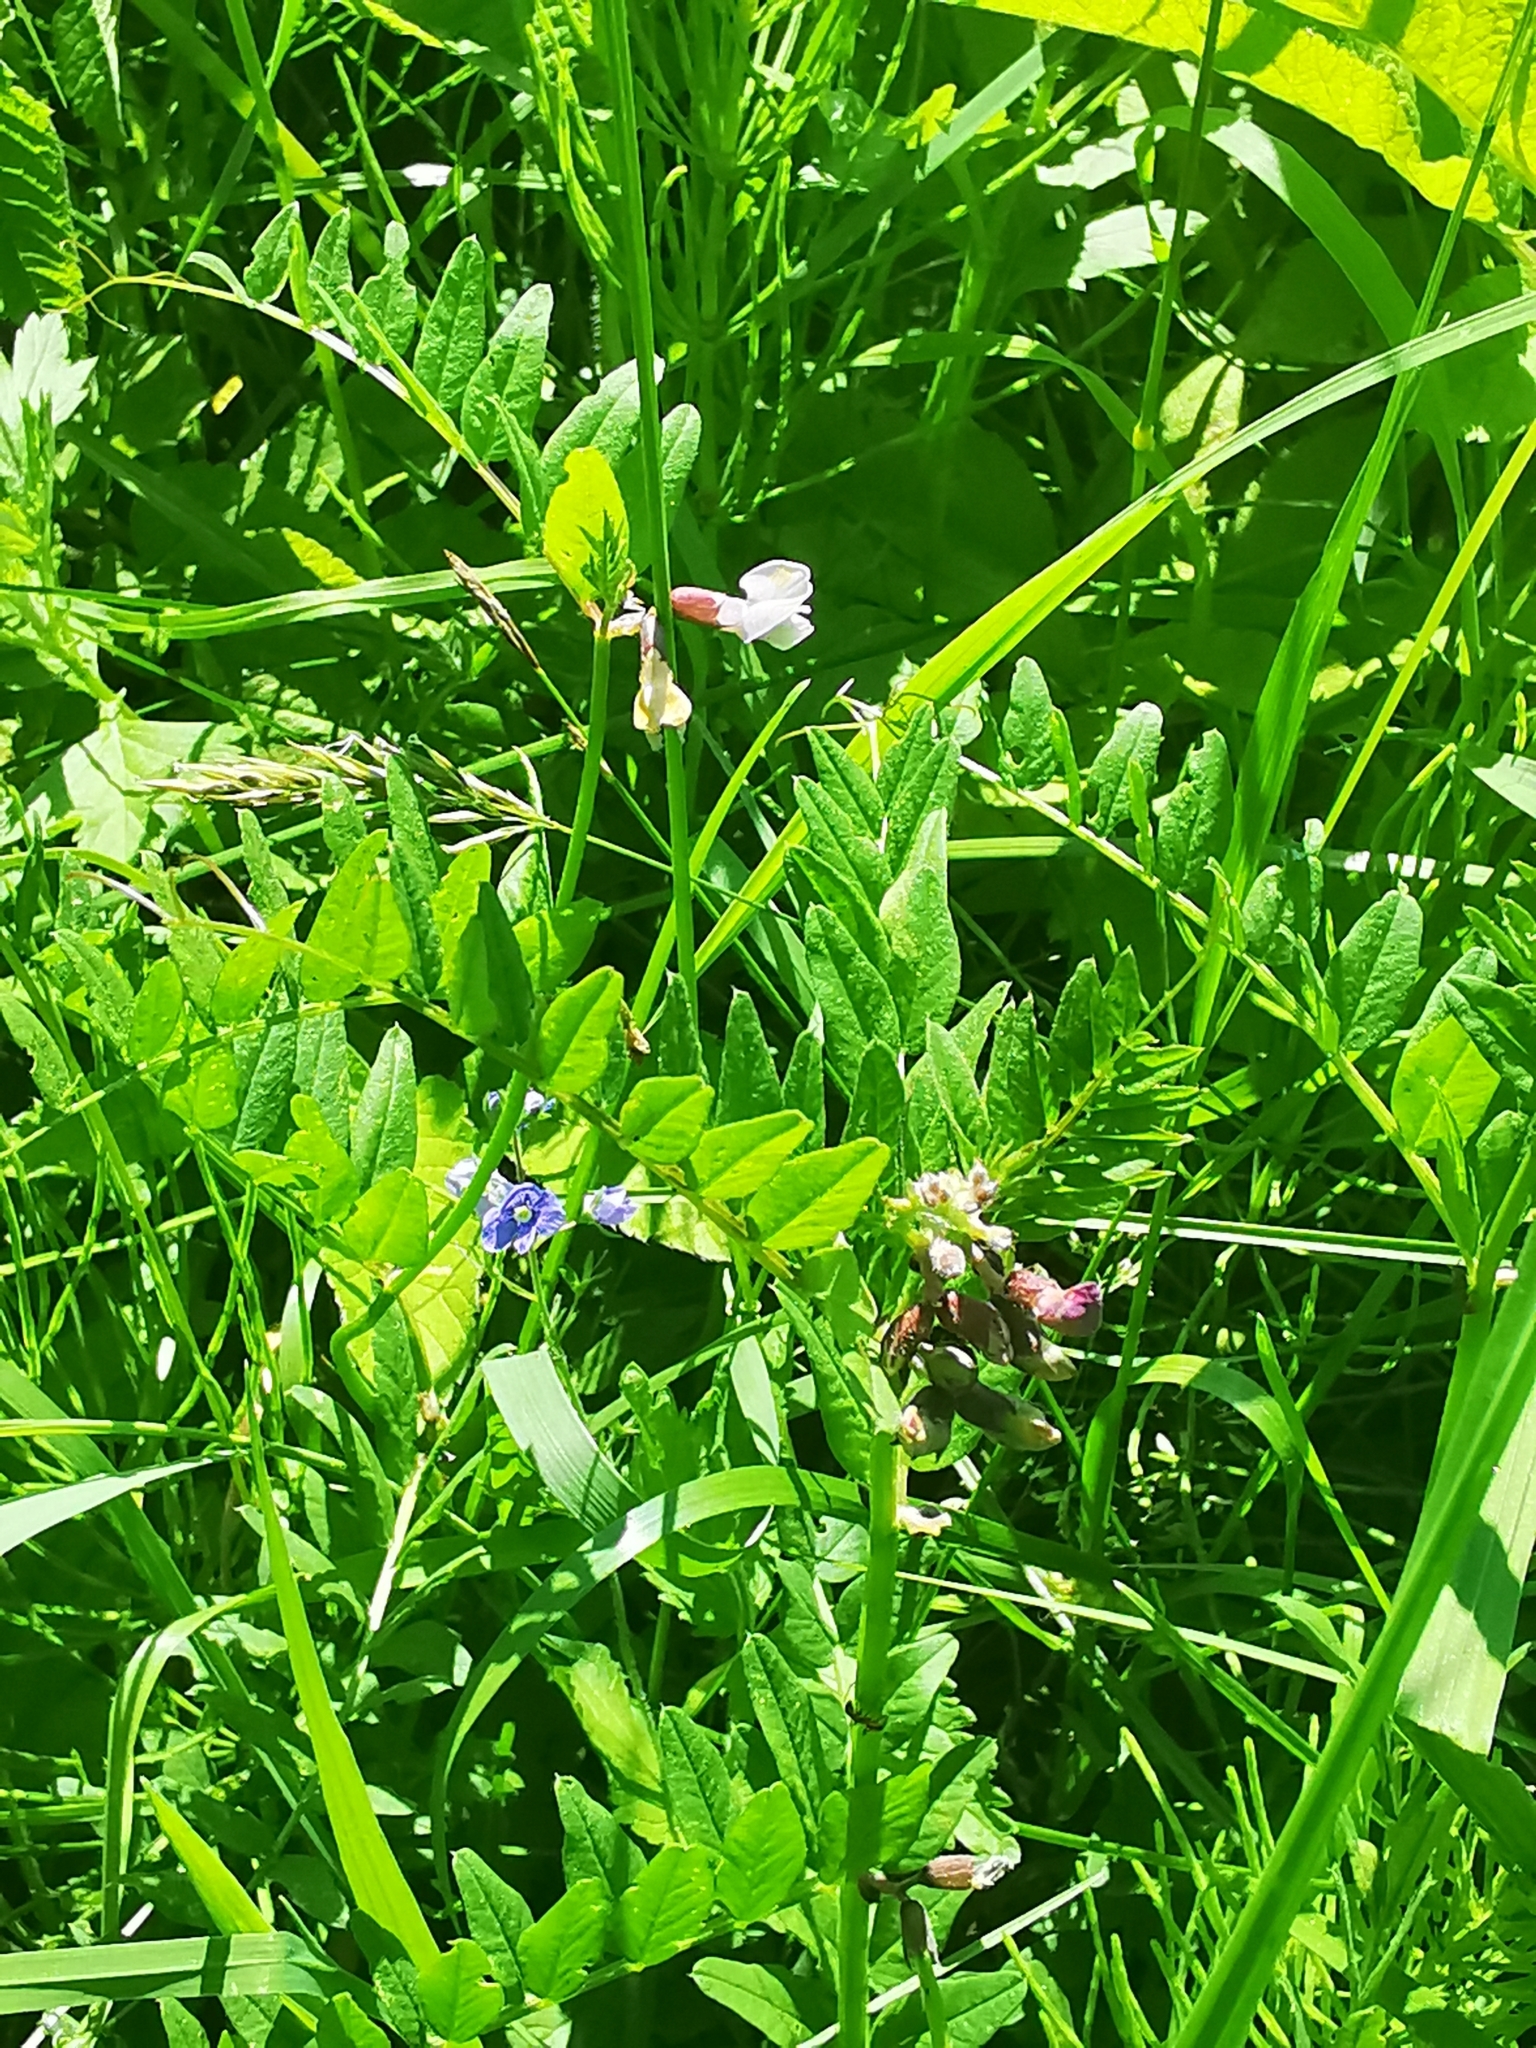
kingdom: Plantae
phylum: Tracheophyta
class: Magnoliopsida
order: Fabales
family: Fabaceae
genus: Vicia
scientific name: Vicia sepium
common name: Bush vetch
